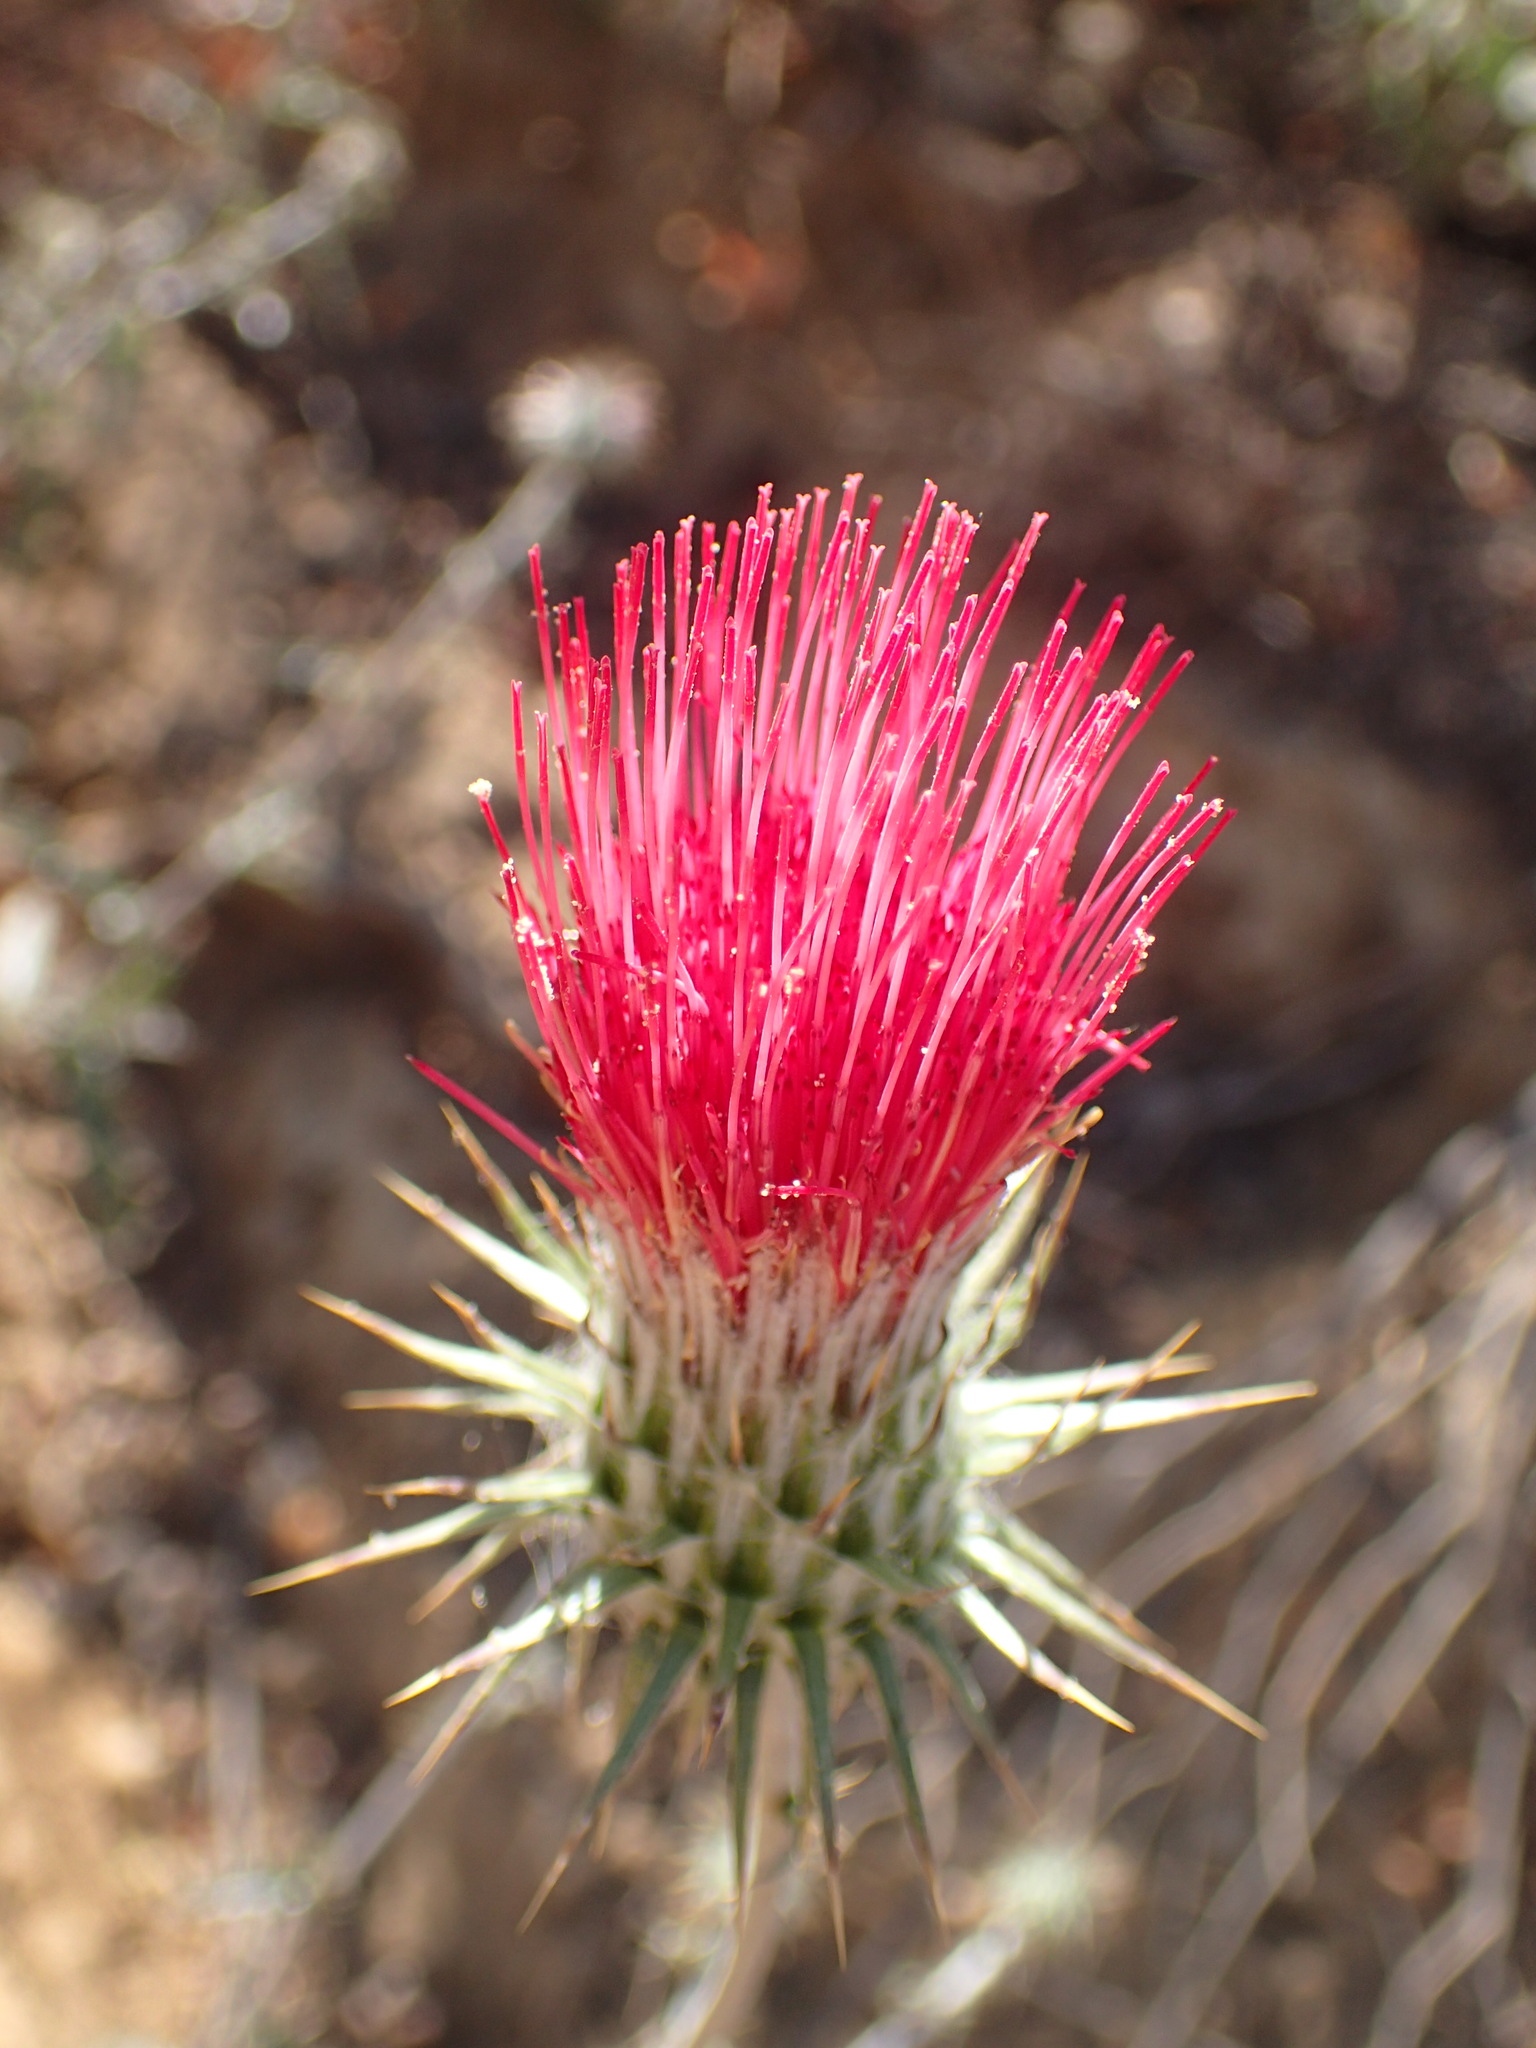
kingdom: Plantae
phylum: Tracheophyta
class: Magnoliopsida
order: Asterales
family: Asteraceae
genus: Cirsium
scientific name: Cirsium occidentale
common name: Western thistle
